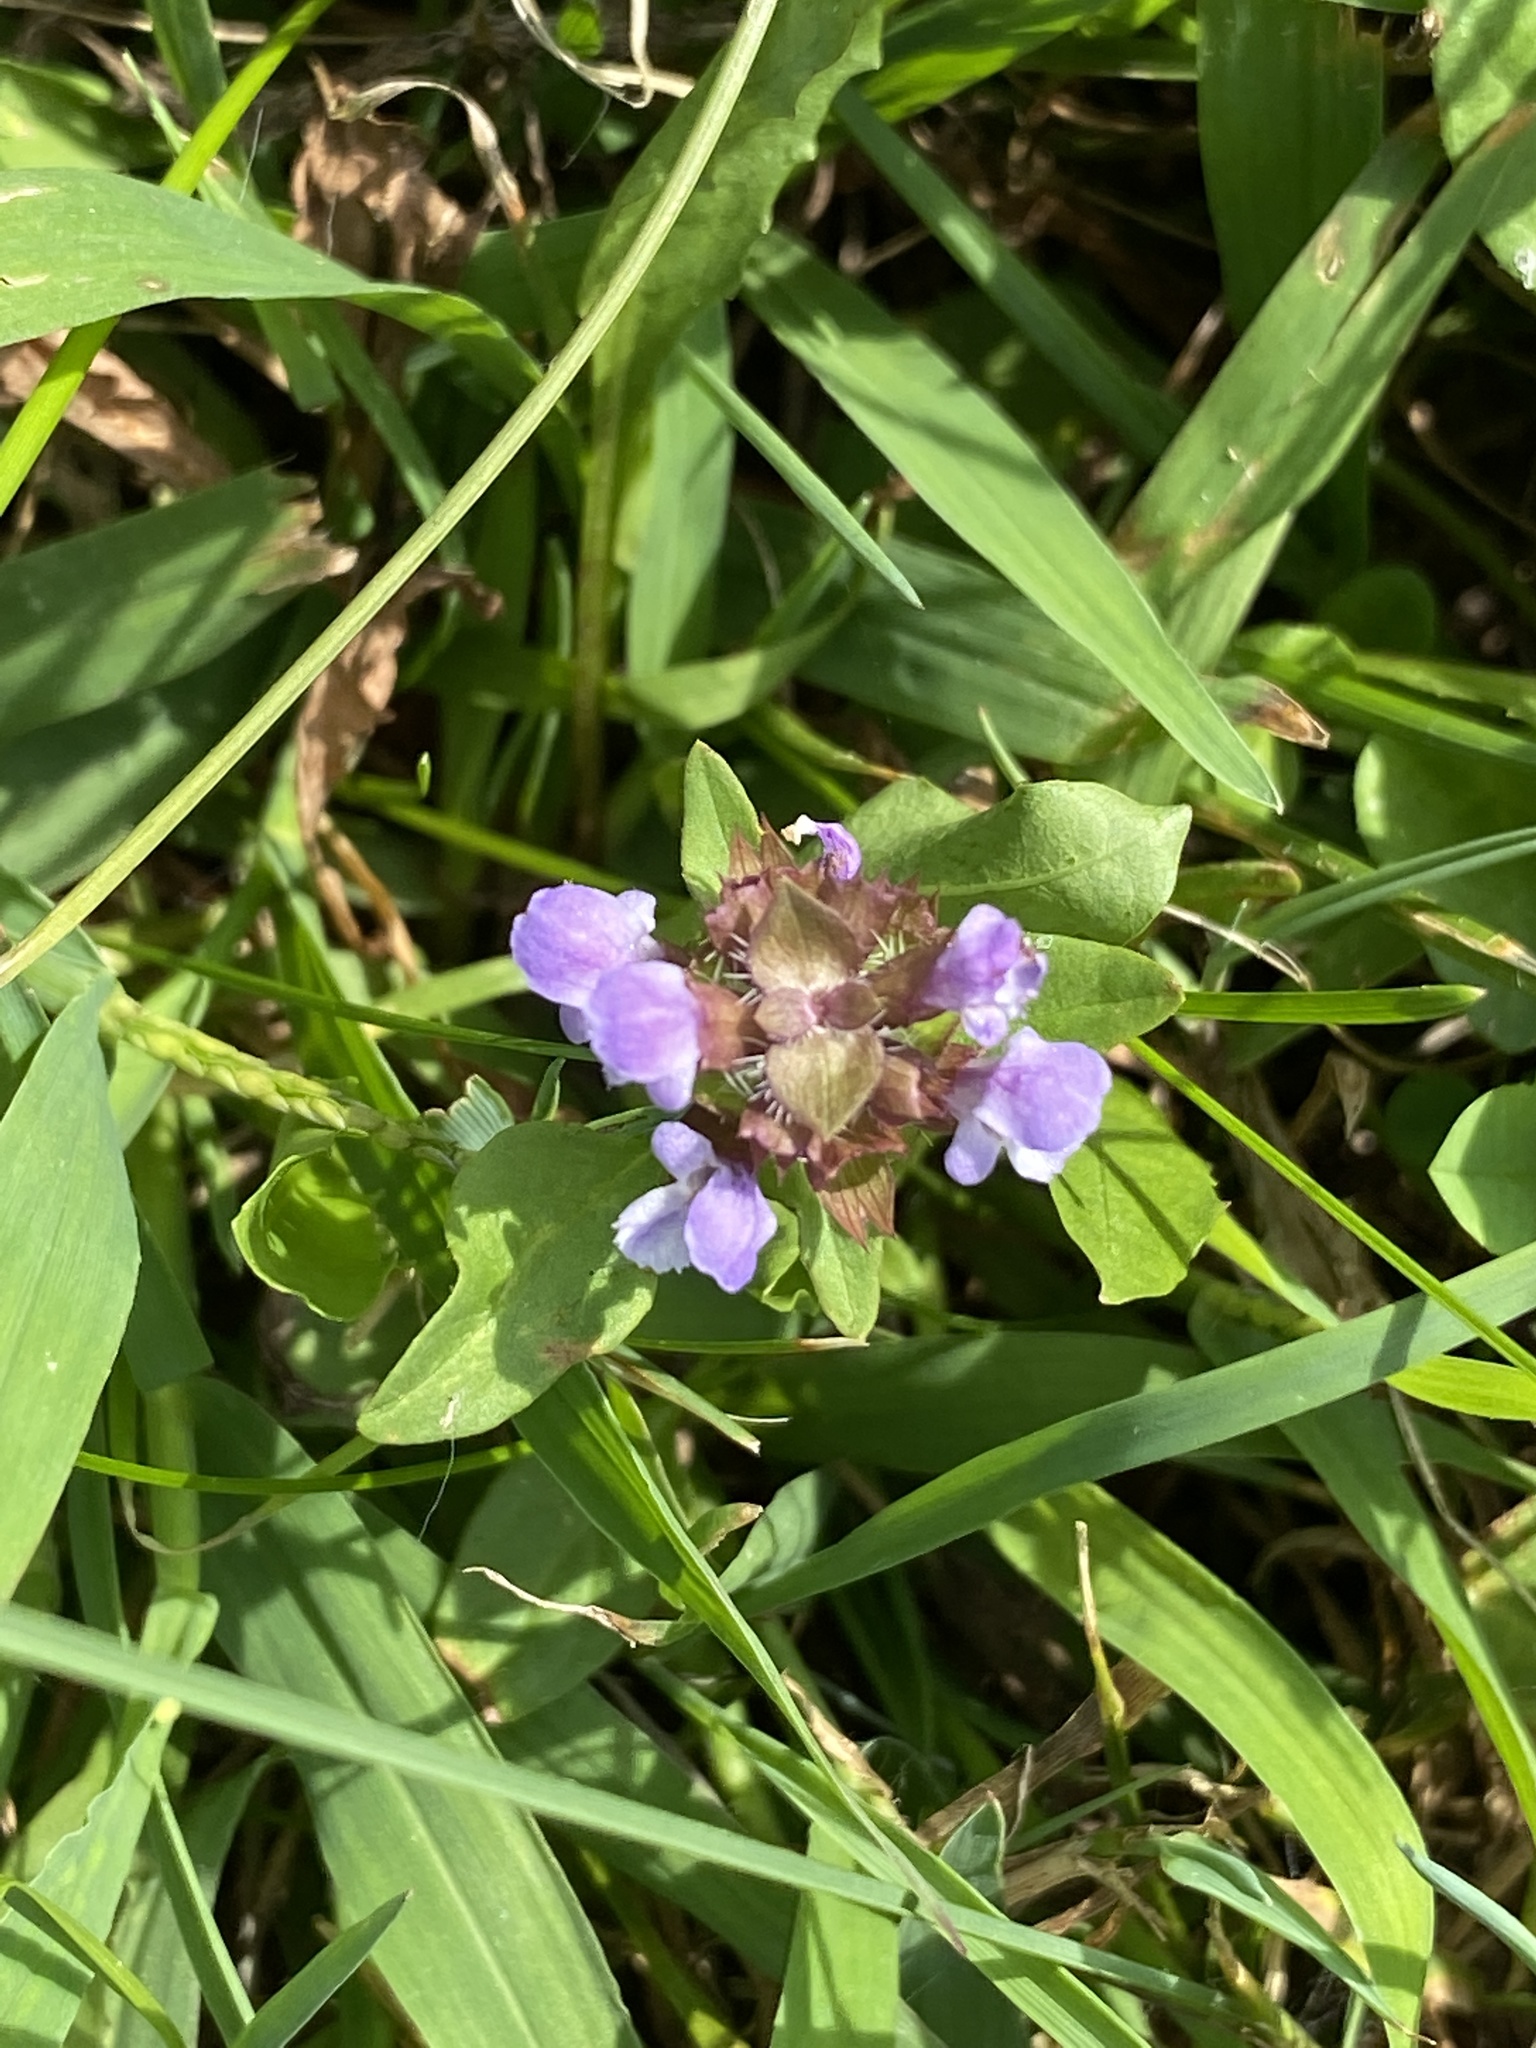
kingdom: Plantae
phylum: Tracheophyta
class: Magnoliopsida
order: Lamiales
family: Lamiaceae
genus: Prunella
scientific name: Prunella vulgaris
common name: Heal-all
